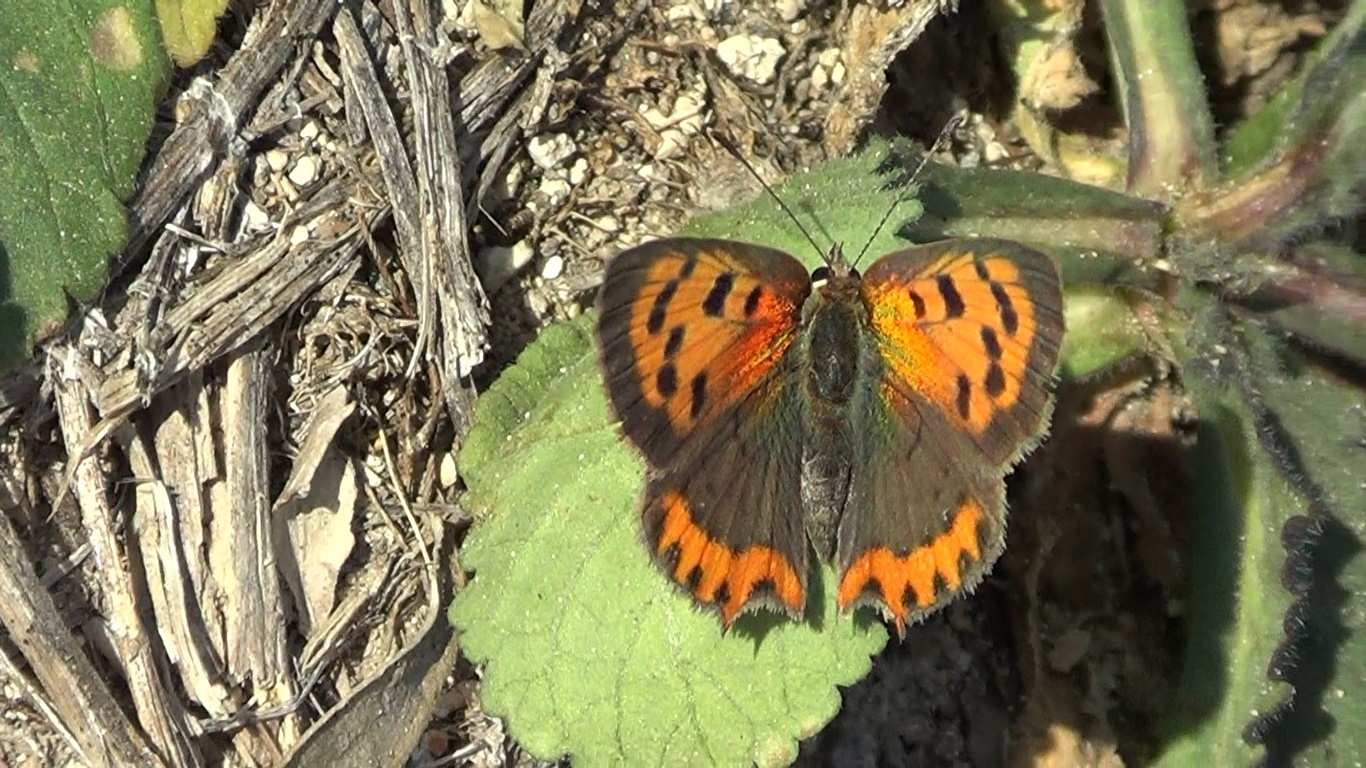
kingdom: Animalia
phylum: Arthropoda
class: Insecta
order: Lepidoptera
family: Lycaenidae
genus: Lycaena
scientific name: Lycaena phlaeas
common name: Small copper
